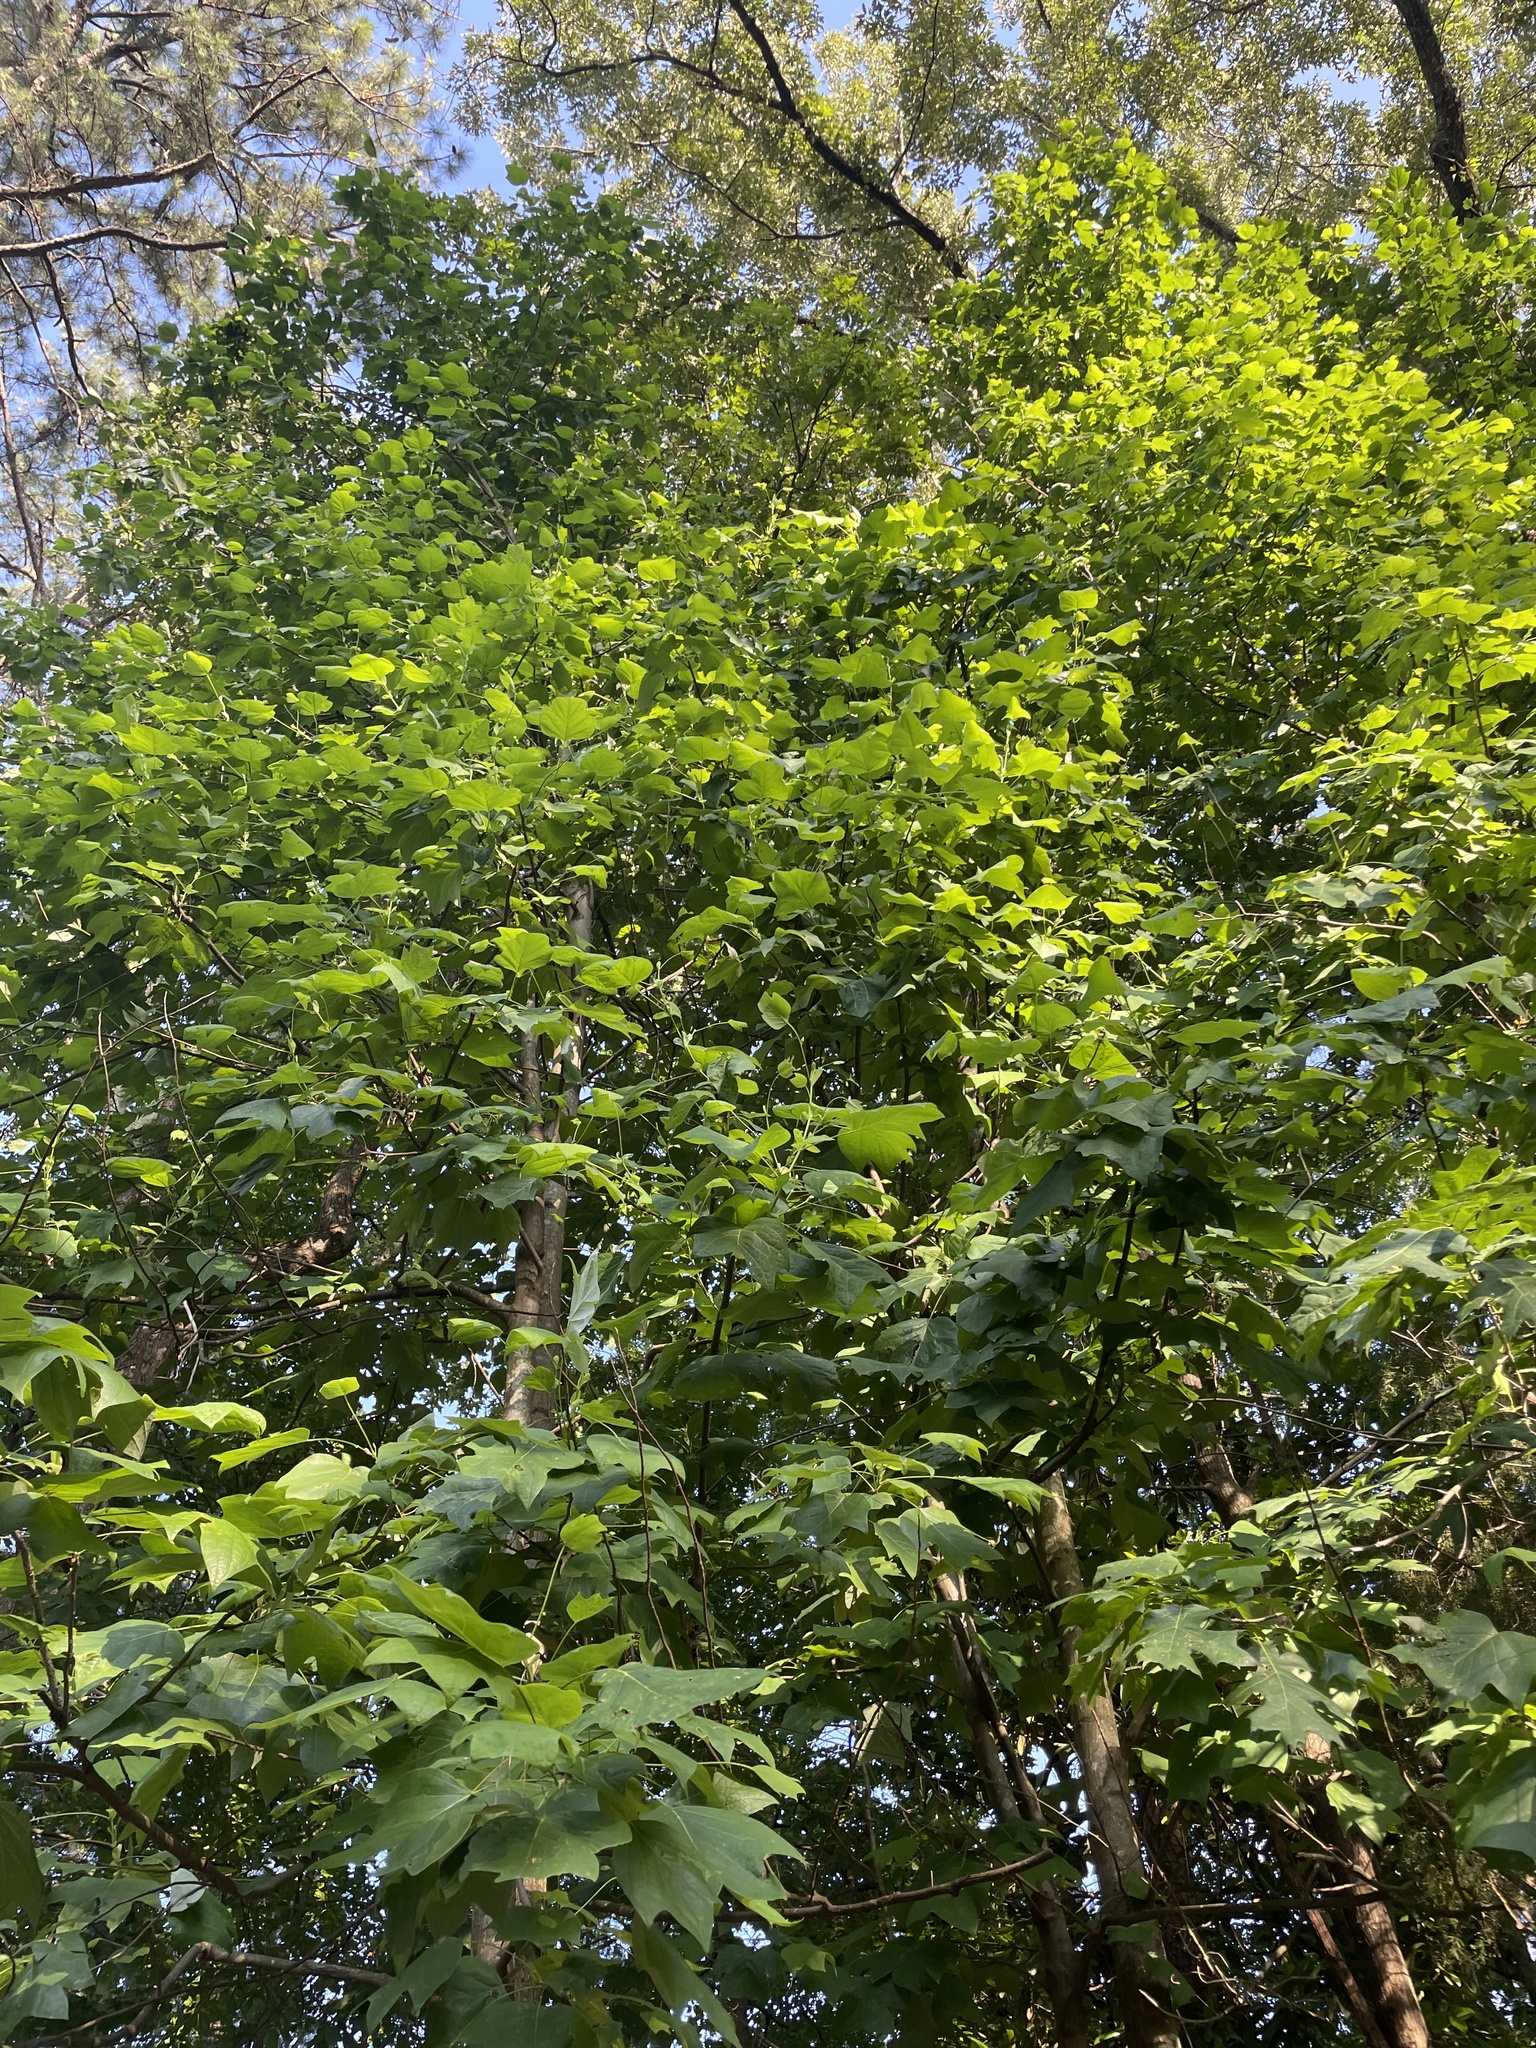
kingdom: Plantae
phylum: Tracheophyta
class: Magnoliopsida
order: Magnoliales
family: Magnoliaceae
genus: Liriodendron
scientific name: Liriodendron tulipifera
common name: Tulip tree
